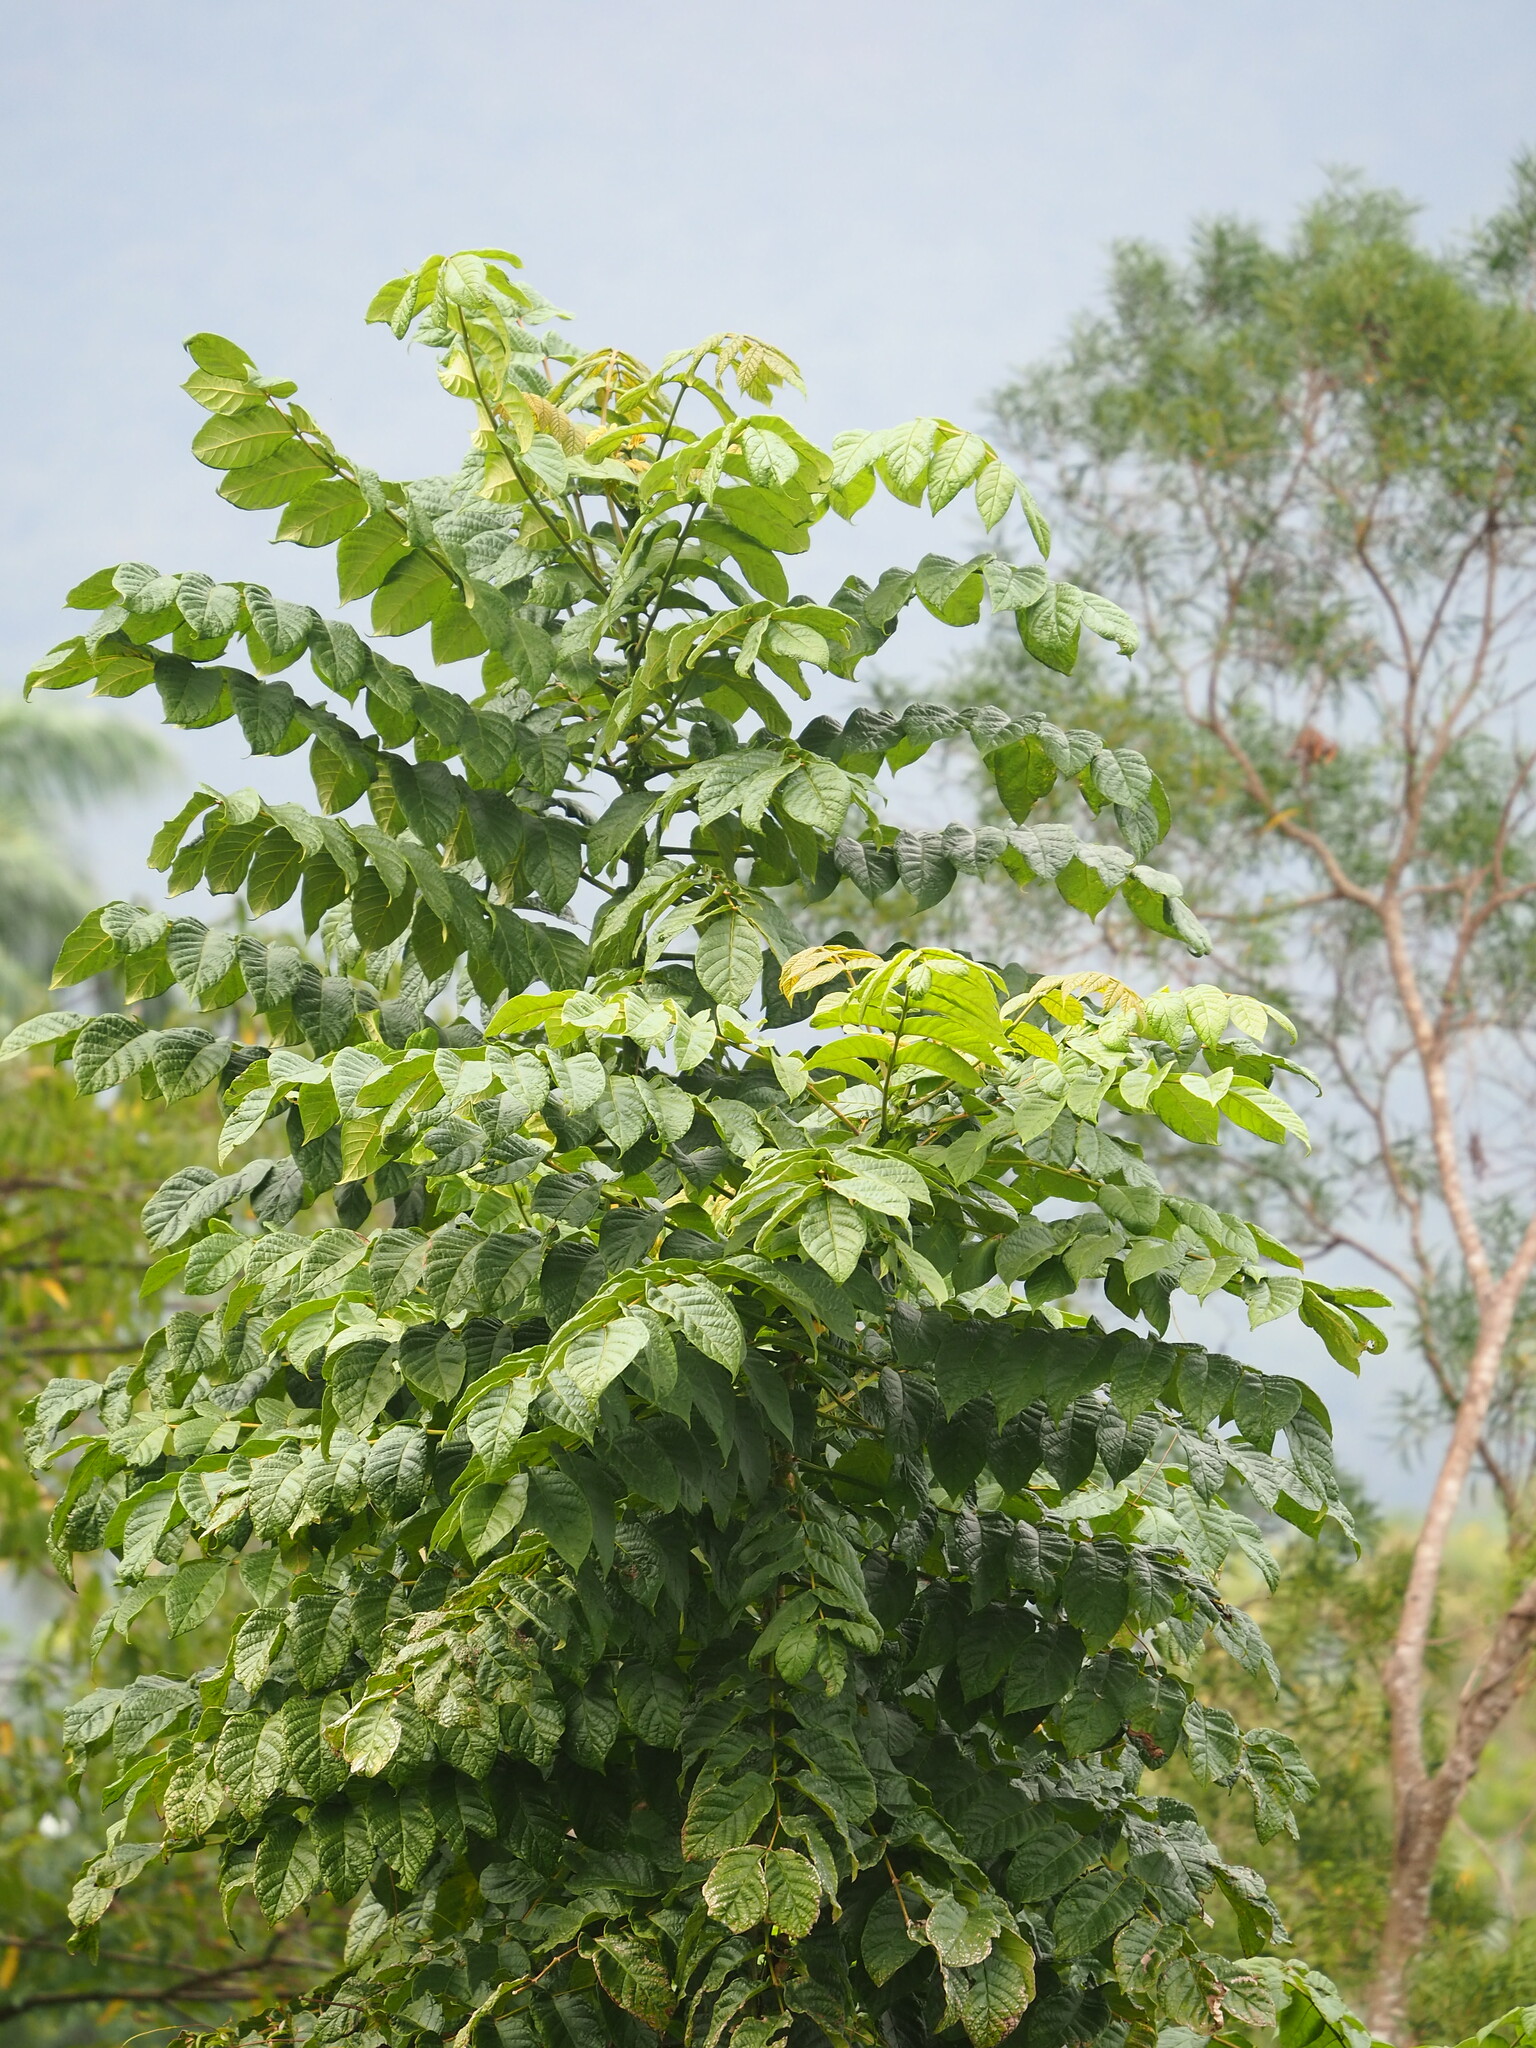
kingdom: Plantae
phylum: Tracheophyta
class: Magnoliopsida
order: Lamiales
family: Bignoniaceae
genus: Spathodea
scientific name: Spathodea campanulata
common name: African tuliptree
